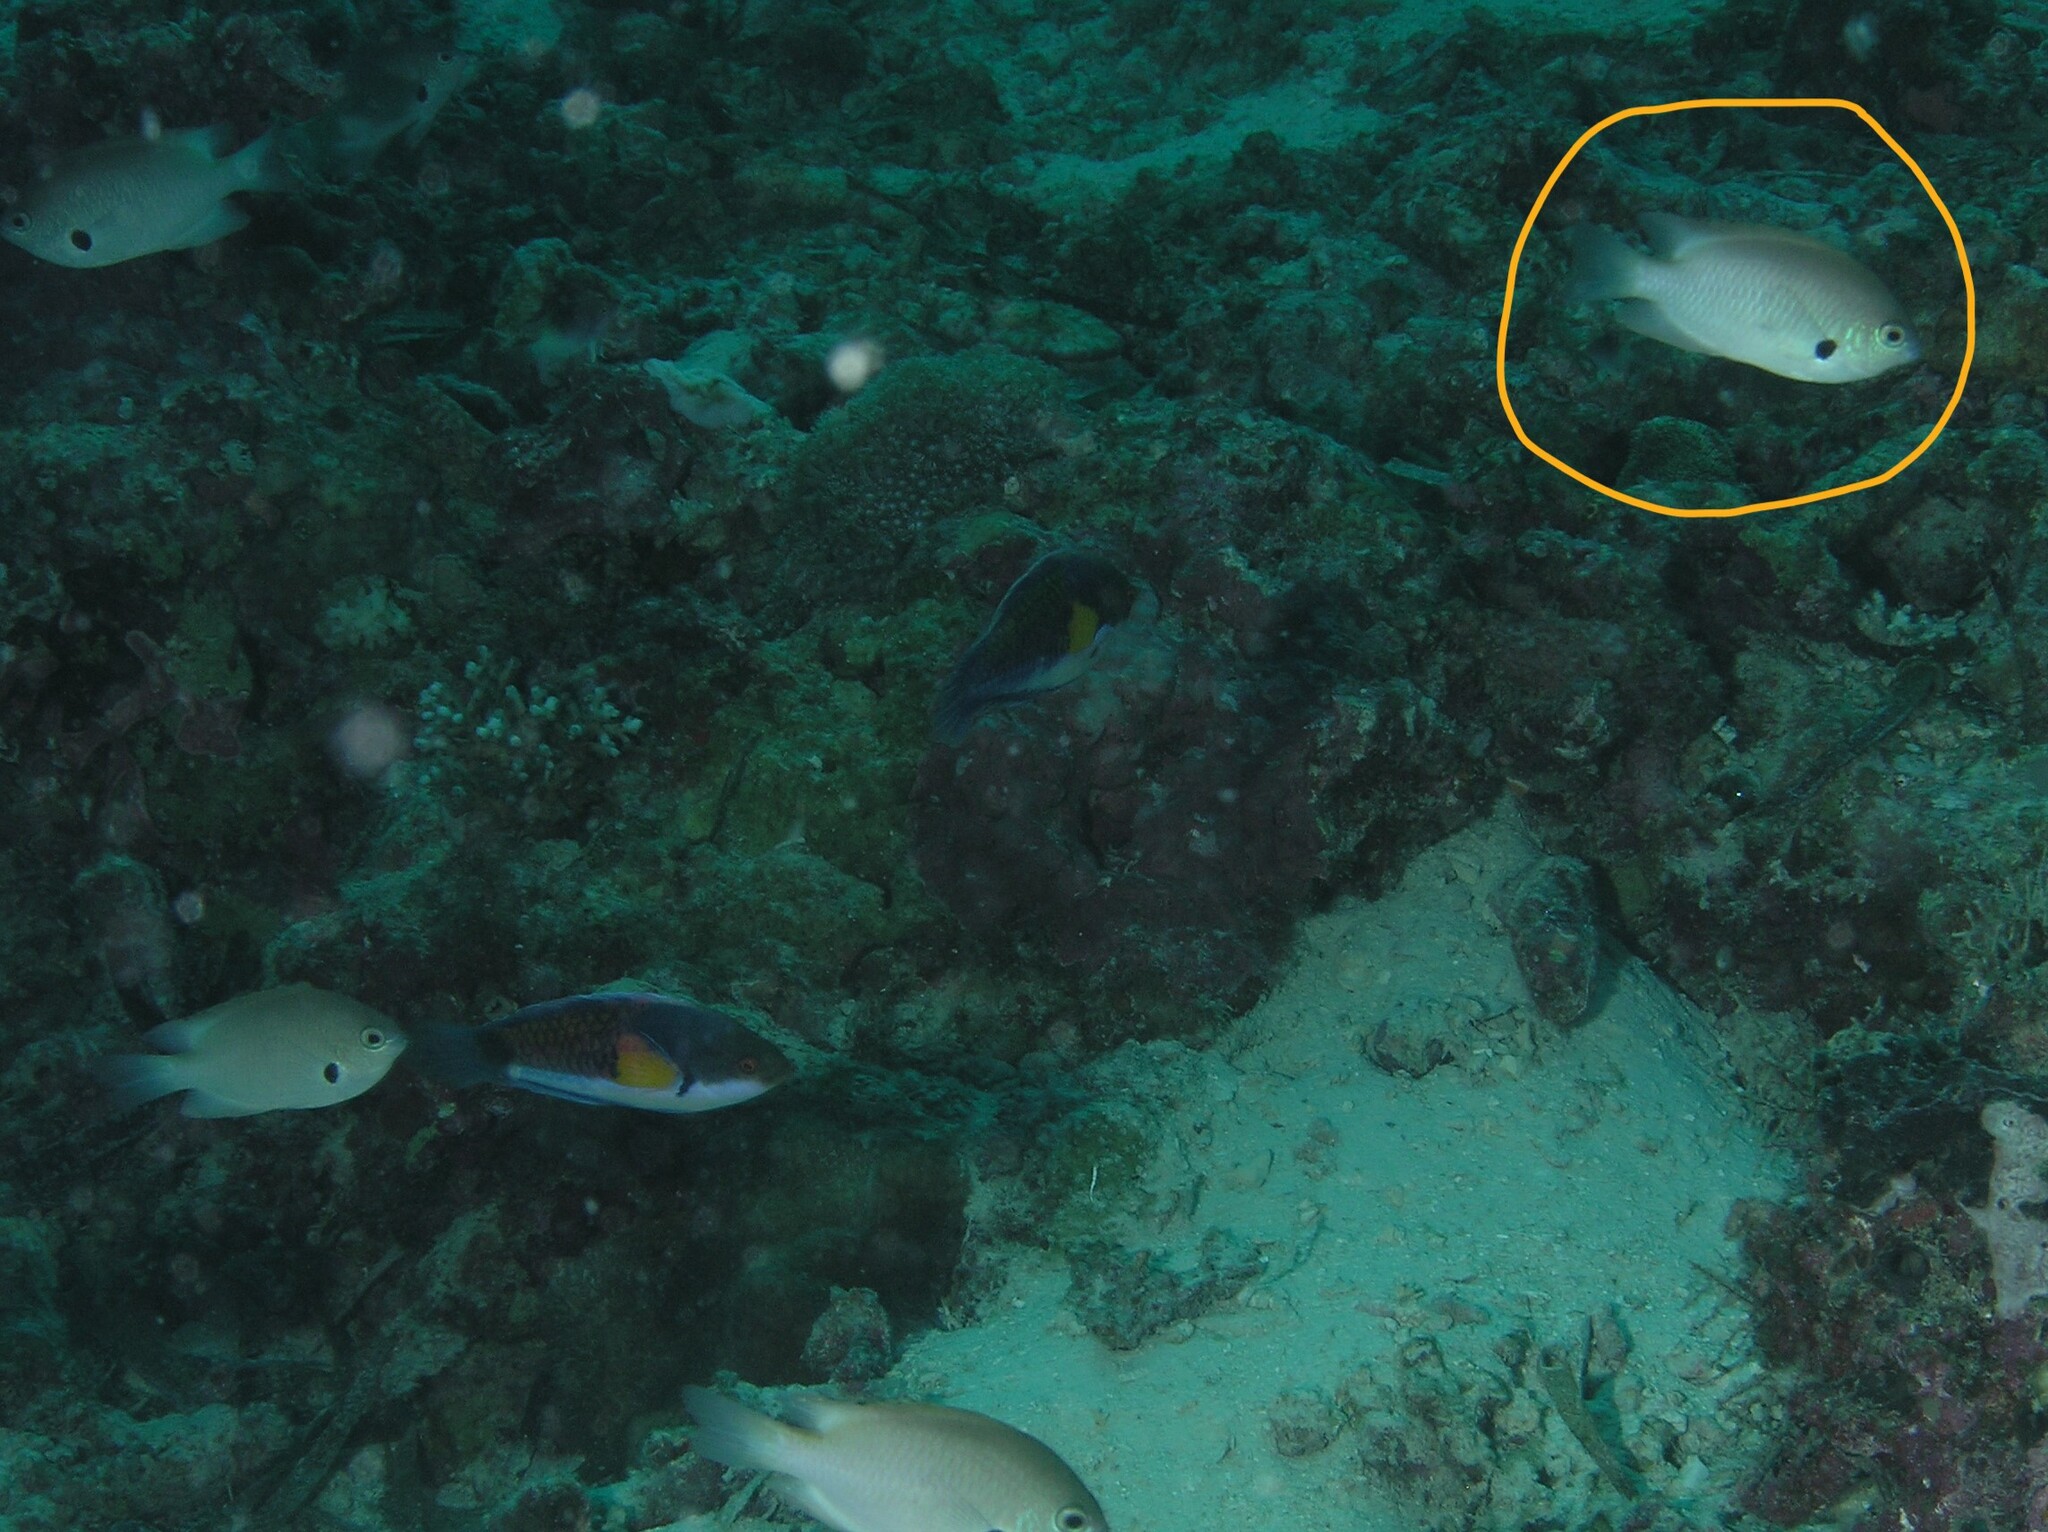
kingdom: Animalia
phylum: Chordata
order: Perciformes
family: Pomacentridae
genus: Pomacentrus
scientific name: Pomacentrus alexanderae
